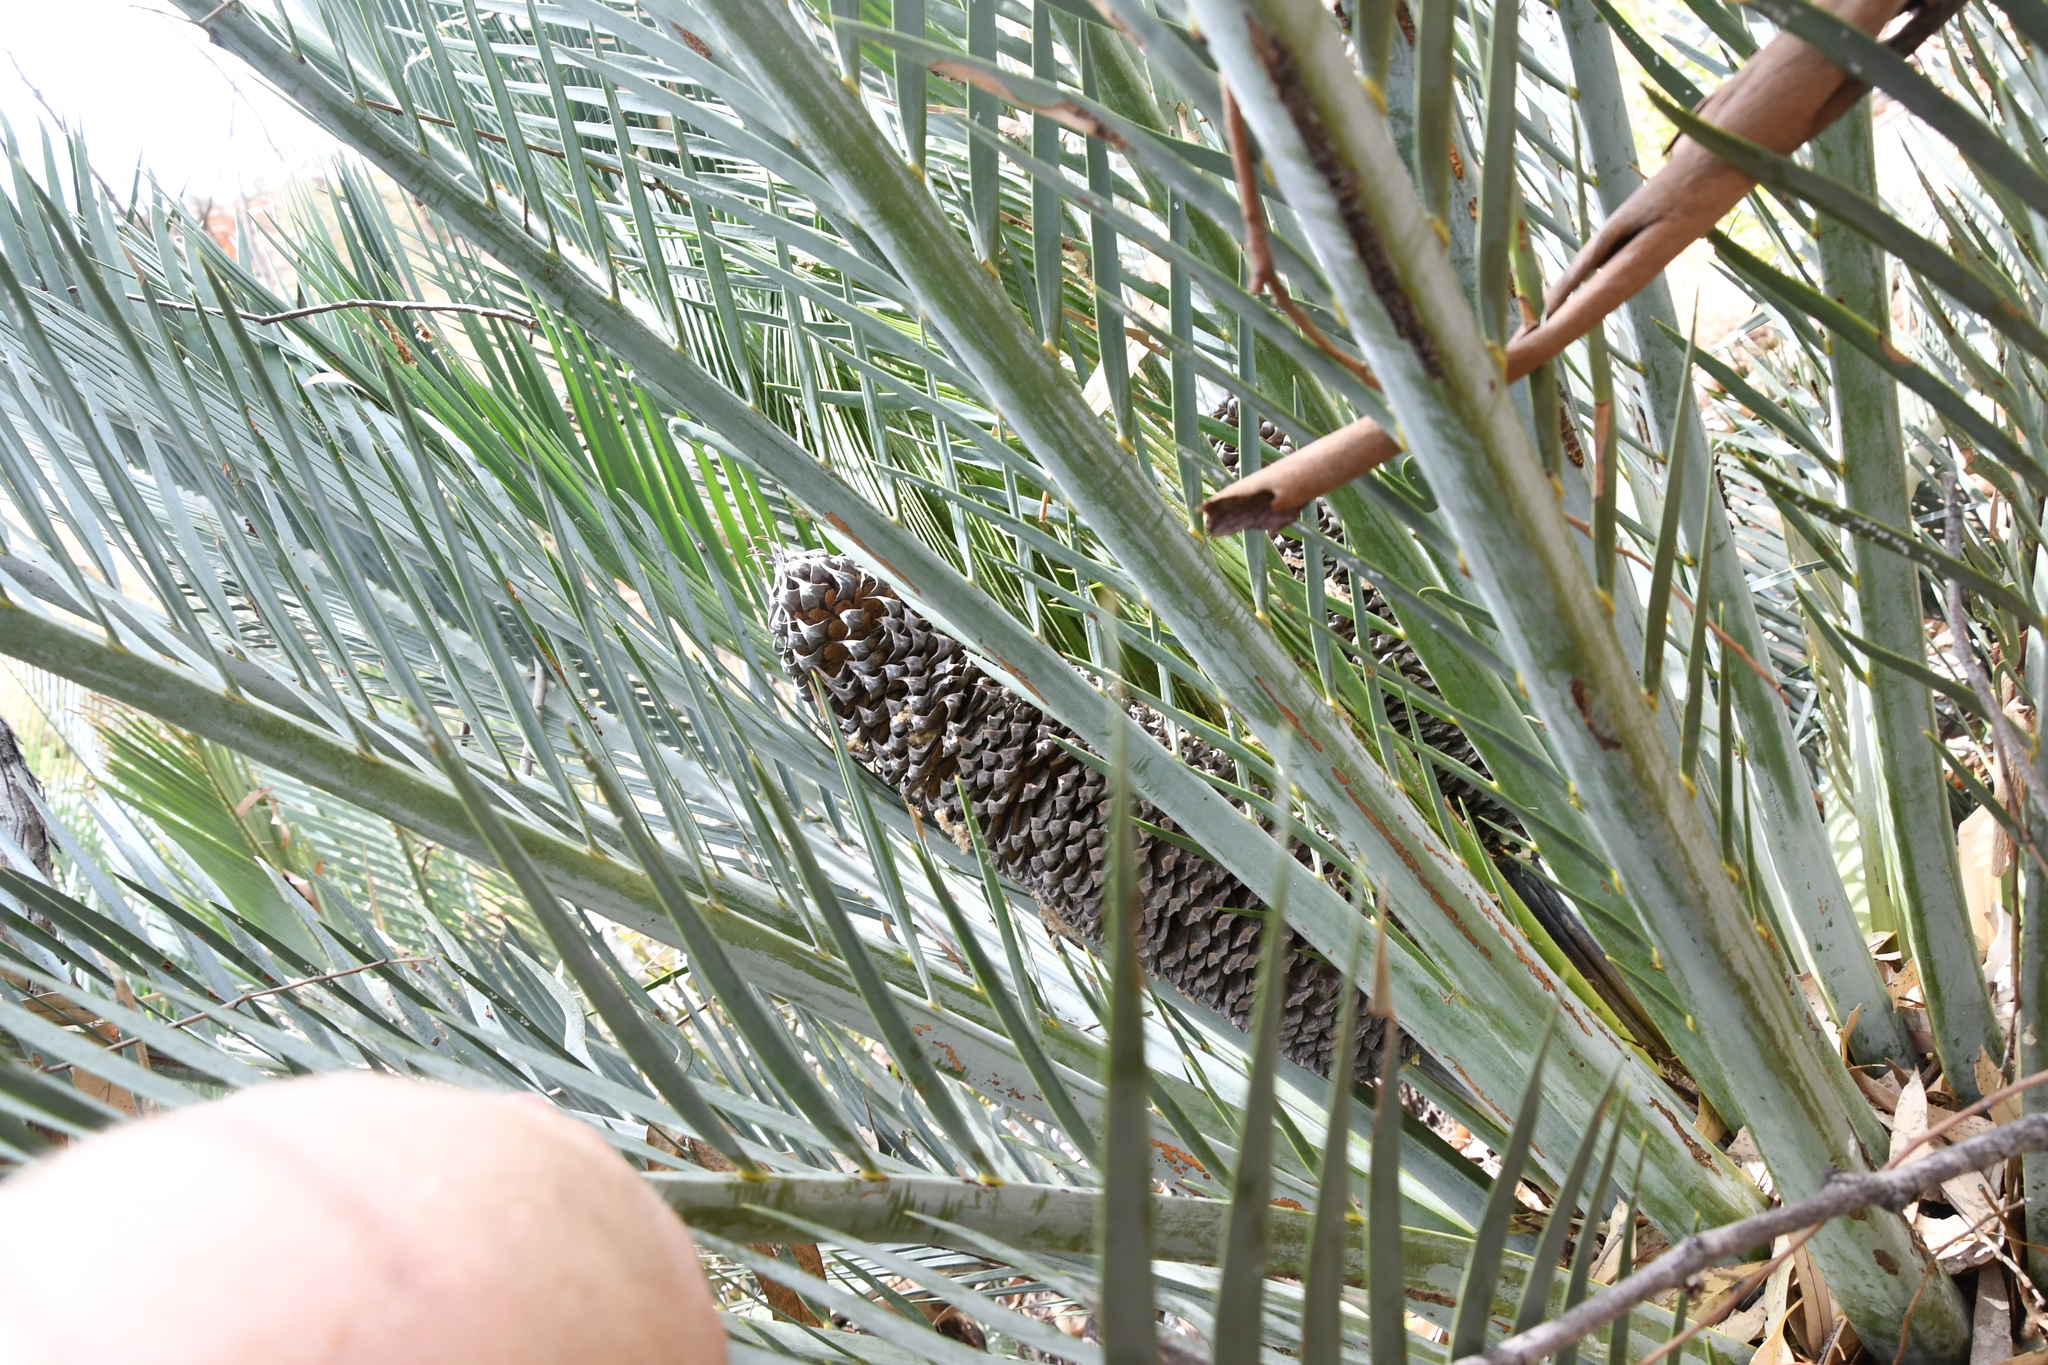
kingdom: Plantae
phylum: Tracheophyta
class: Cycadopsida
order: Cycadales
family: Zamiaceae
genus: Macrozamia
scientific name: Macrozamia macdonnellii
